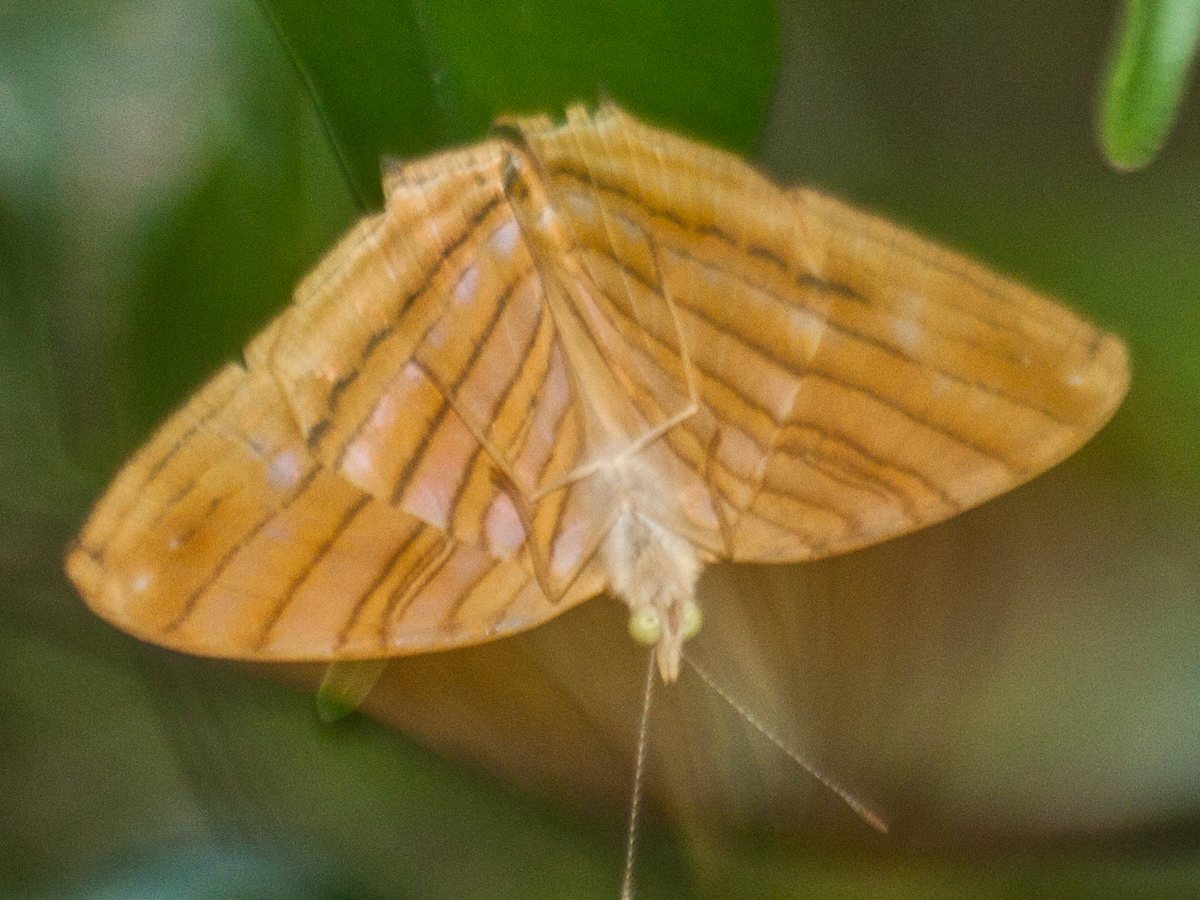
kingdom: Animalia
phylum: Arthropoda
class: Insecta
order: Lepidoptera
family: Nymphalidae
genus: Chersonesia
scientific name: Chersonesia risa
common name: Common maplet
